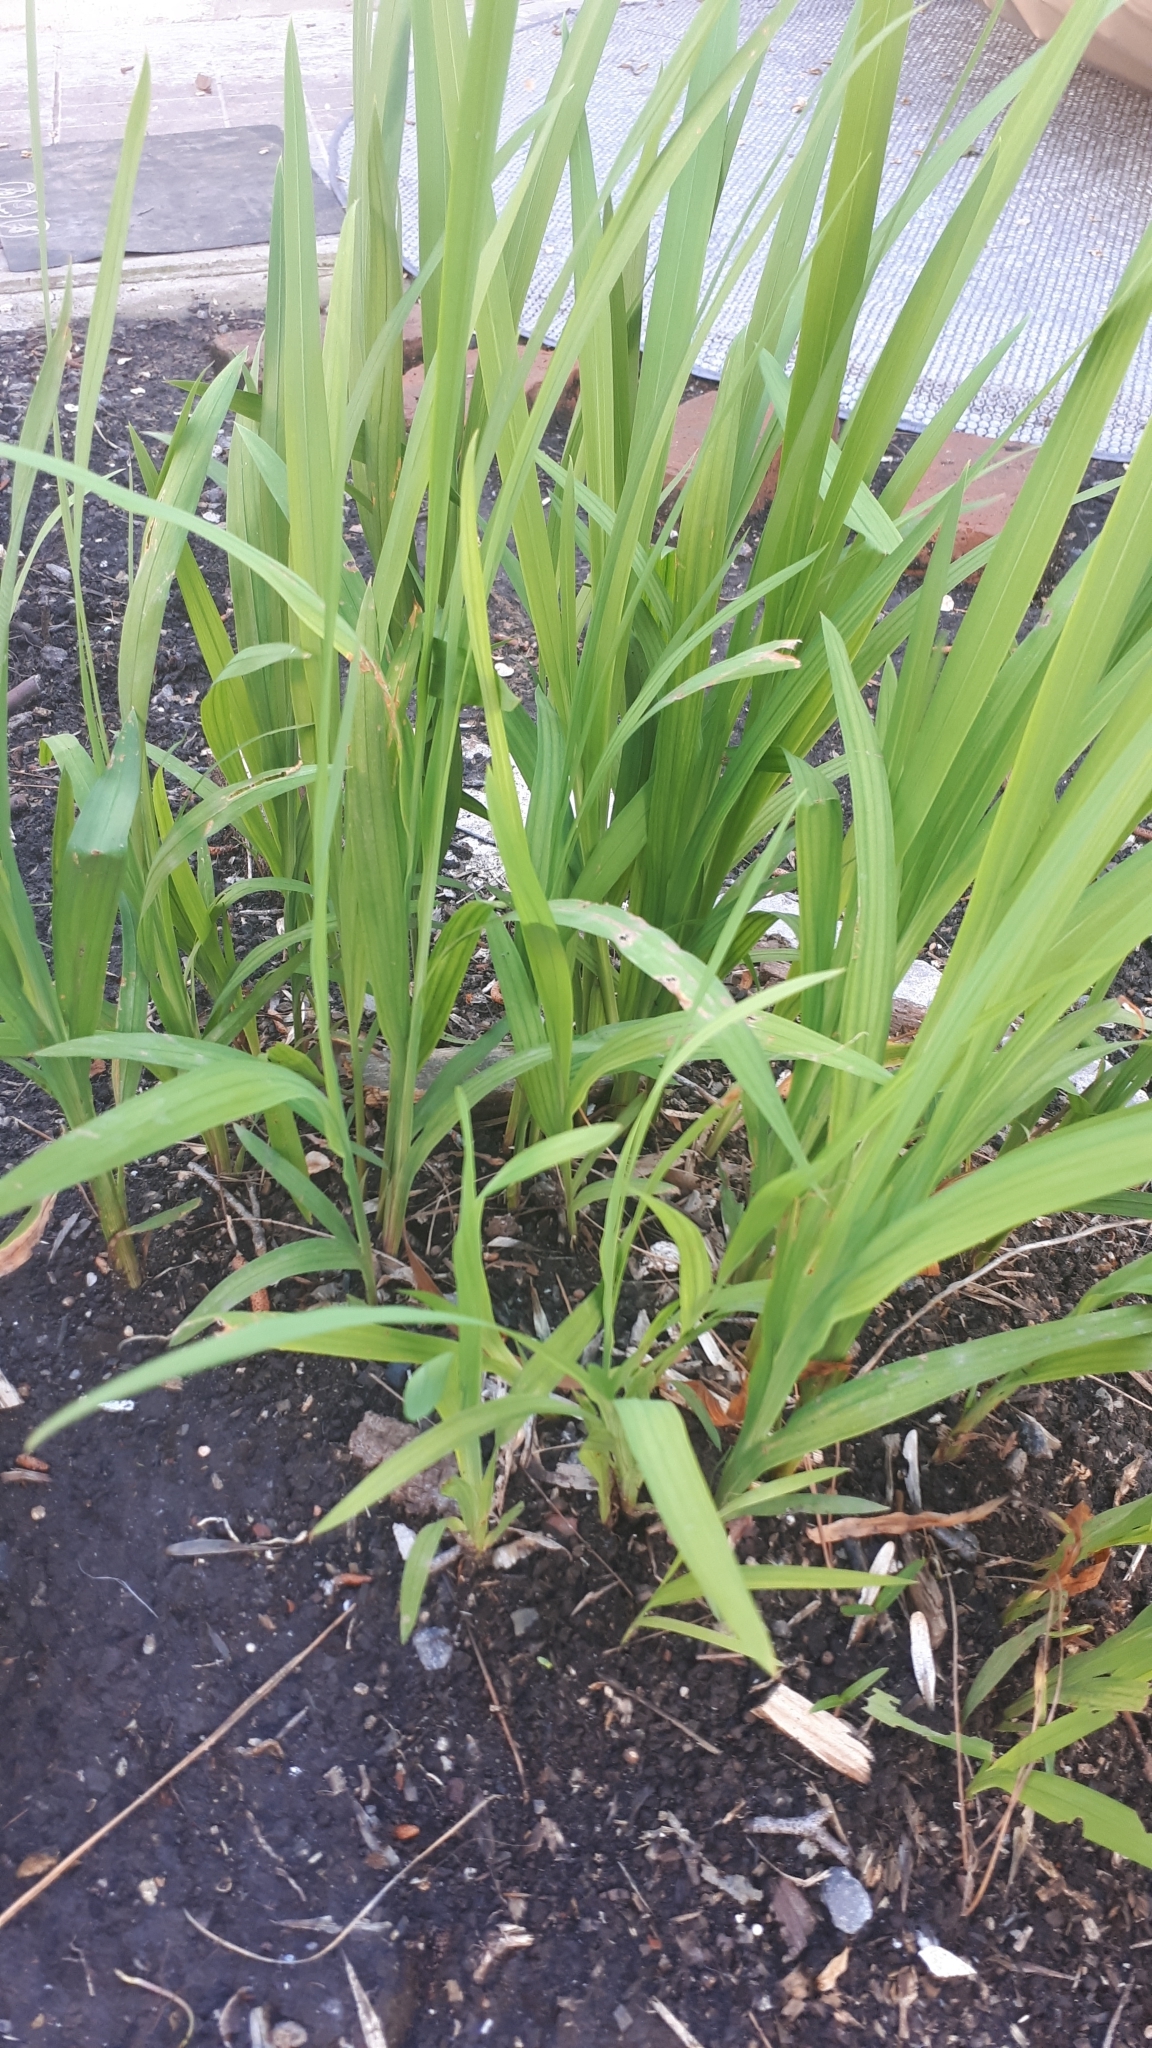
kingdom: Plantae
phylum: Tracheophyta
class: Liliopsida
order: Asparagales
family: Iridaceae
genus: Crocosmia
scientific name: Crocosmia crocosmiiflora
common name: Montbretia
